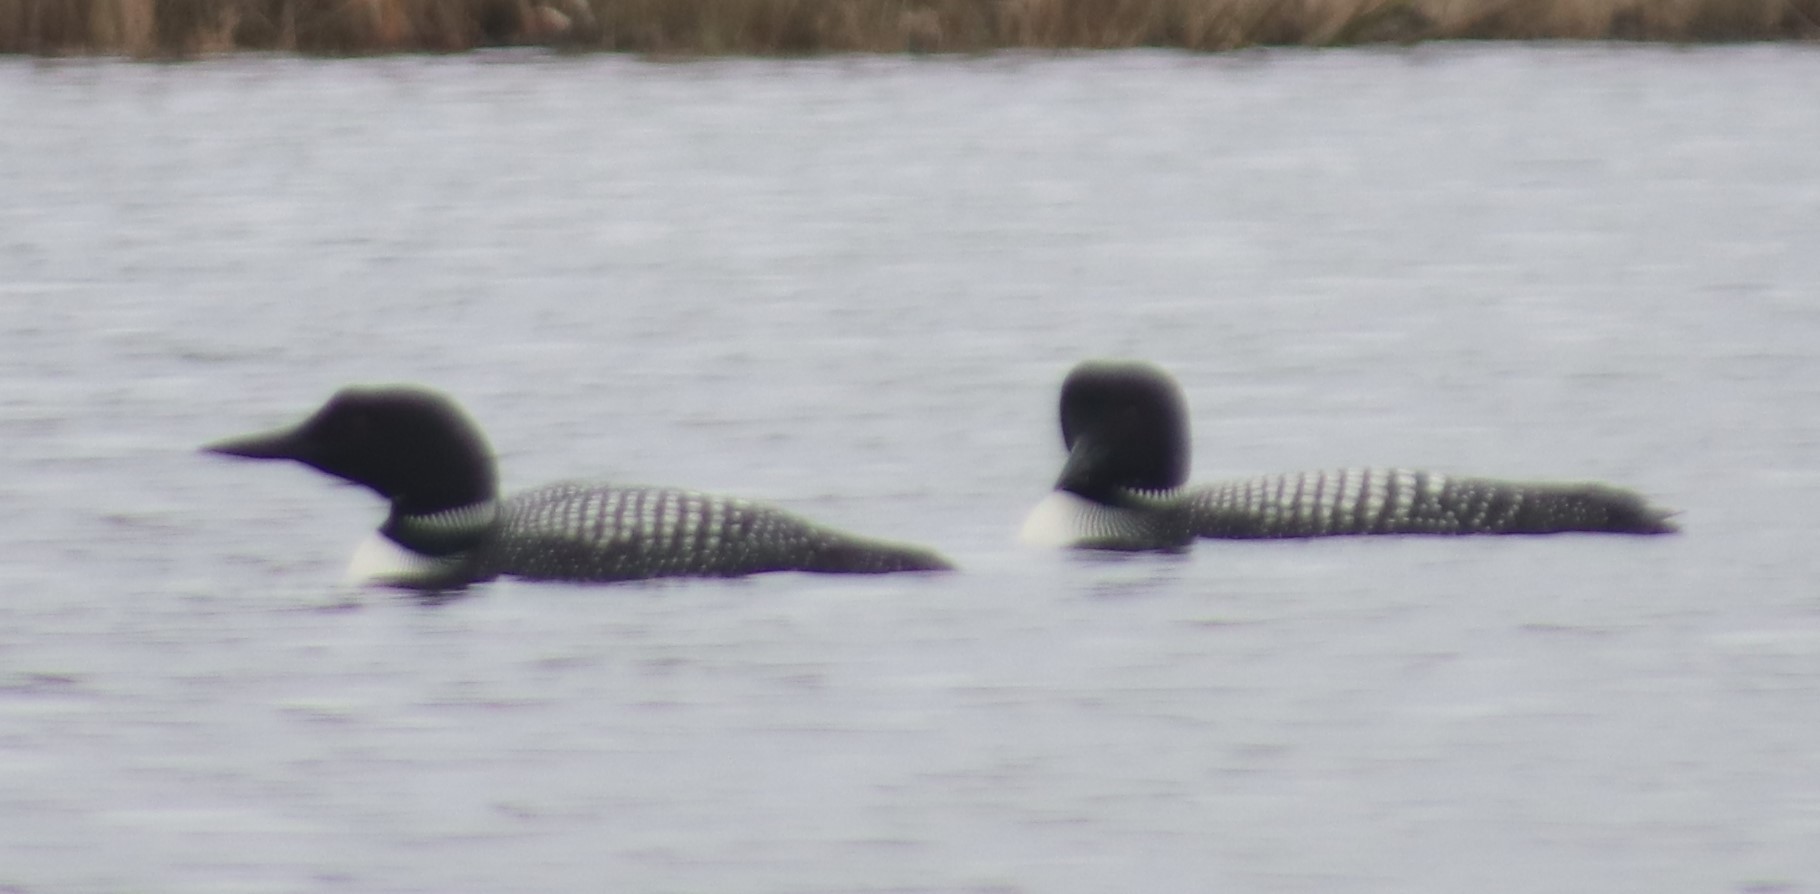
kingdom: Animalia
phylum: Chordata
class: Aves
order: Gaviiformes
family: Gaviidae
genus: Gavia
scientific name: Gavia immer
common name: Common loon
